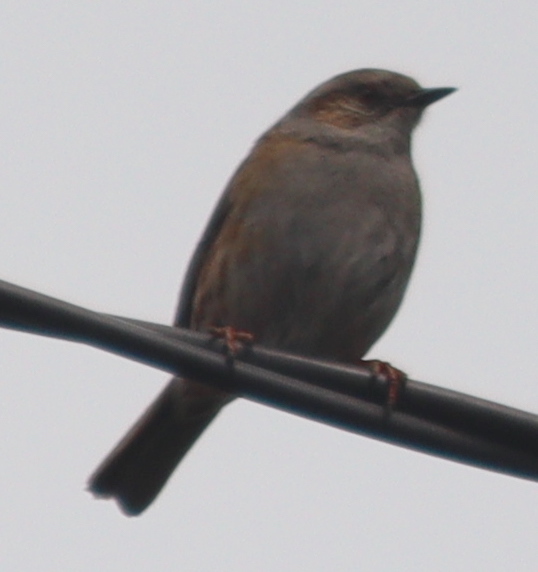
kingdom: Animalia
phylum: Chordata
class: Aves
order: Passeriformes
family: Prunellidae
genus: Prunella
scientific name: Prunella modularis
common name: Dunnock
